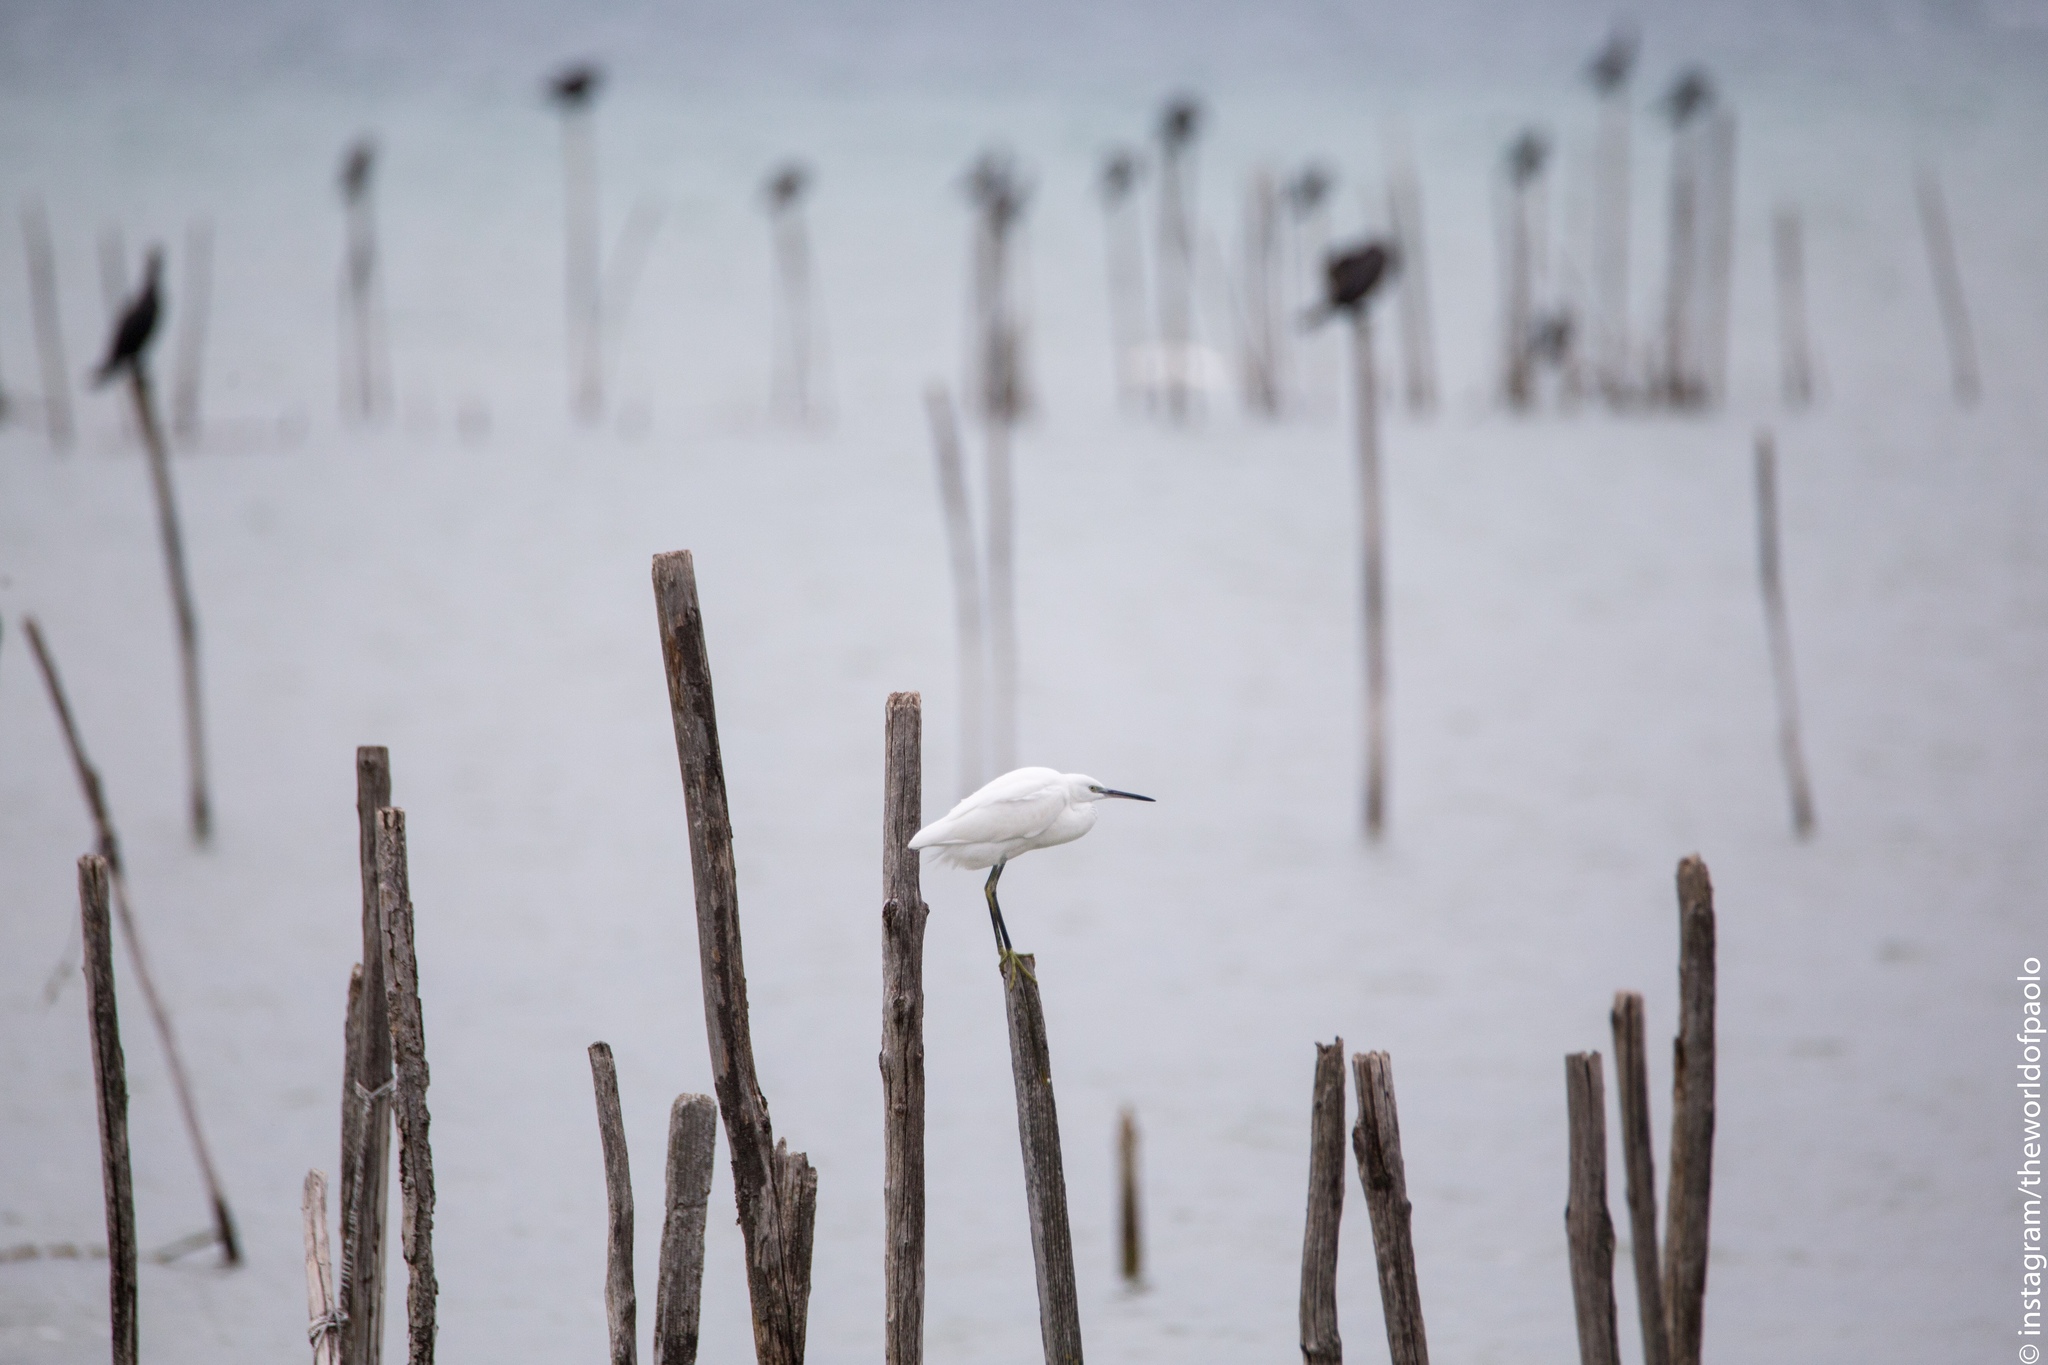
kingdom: Animalia
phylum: Chordata
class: Aves
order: Pelecaniformes
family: Ardeidae
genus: Egretta
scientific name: Egretta garzetta
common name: Little egret
